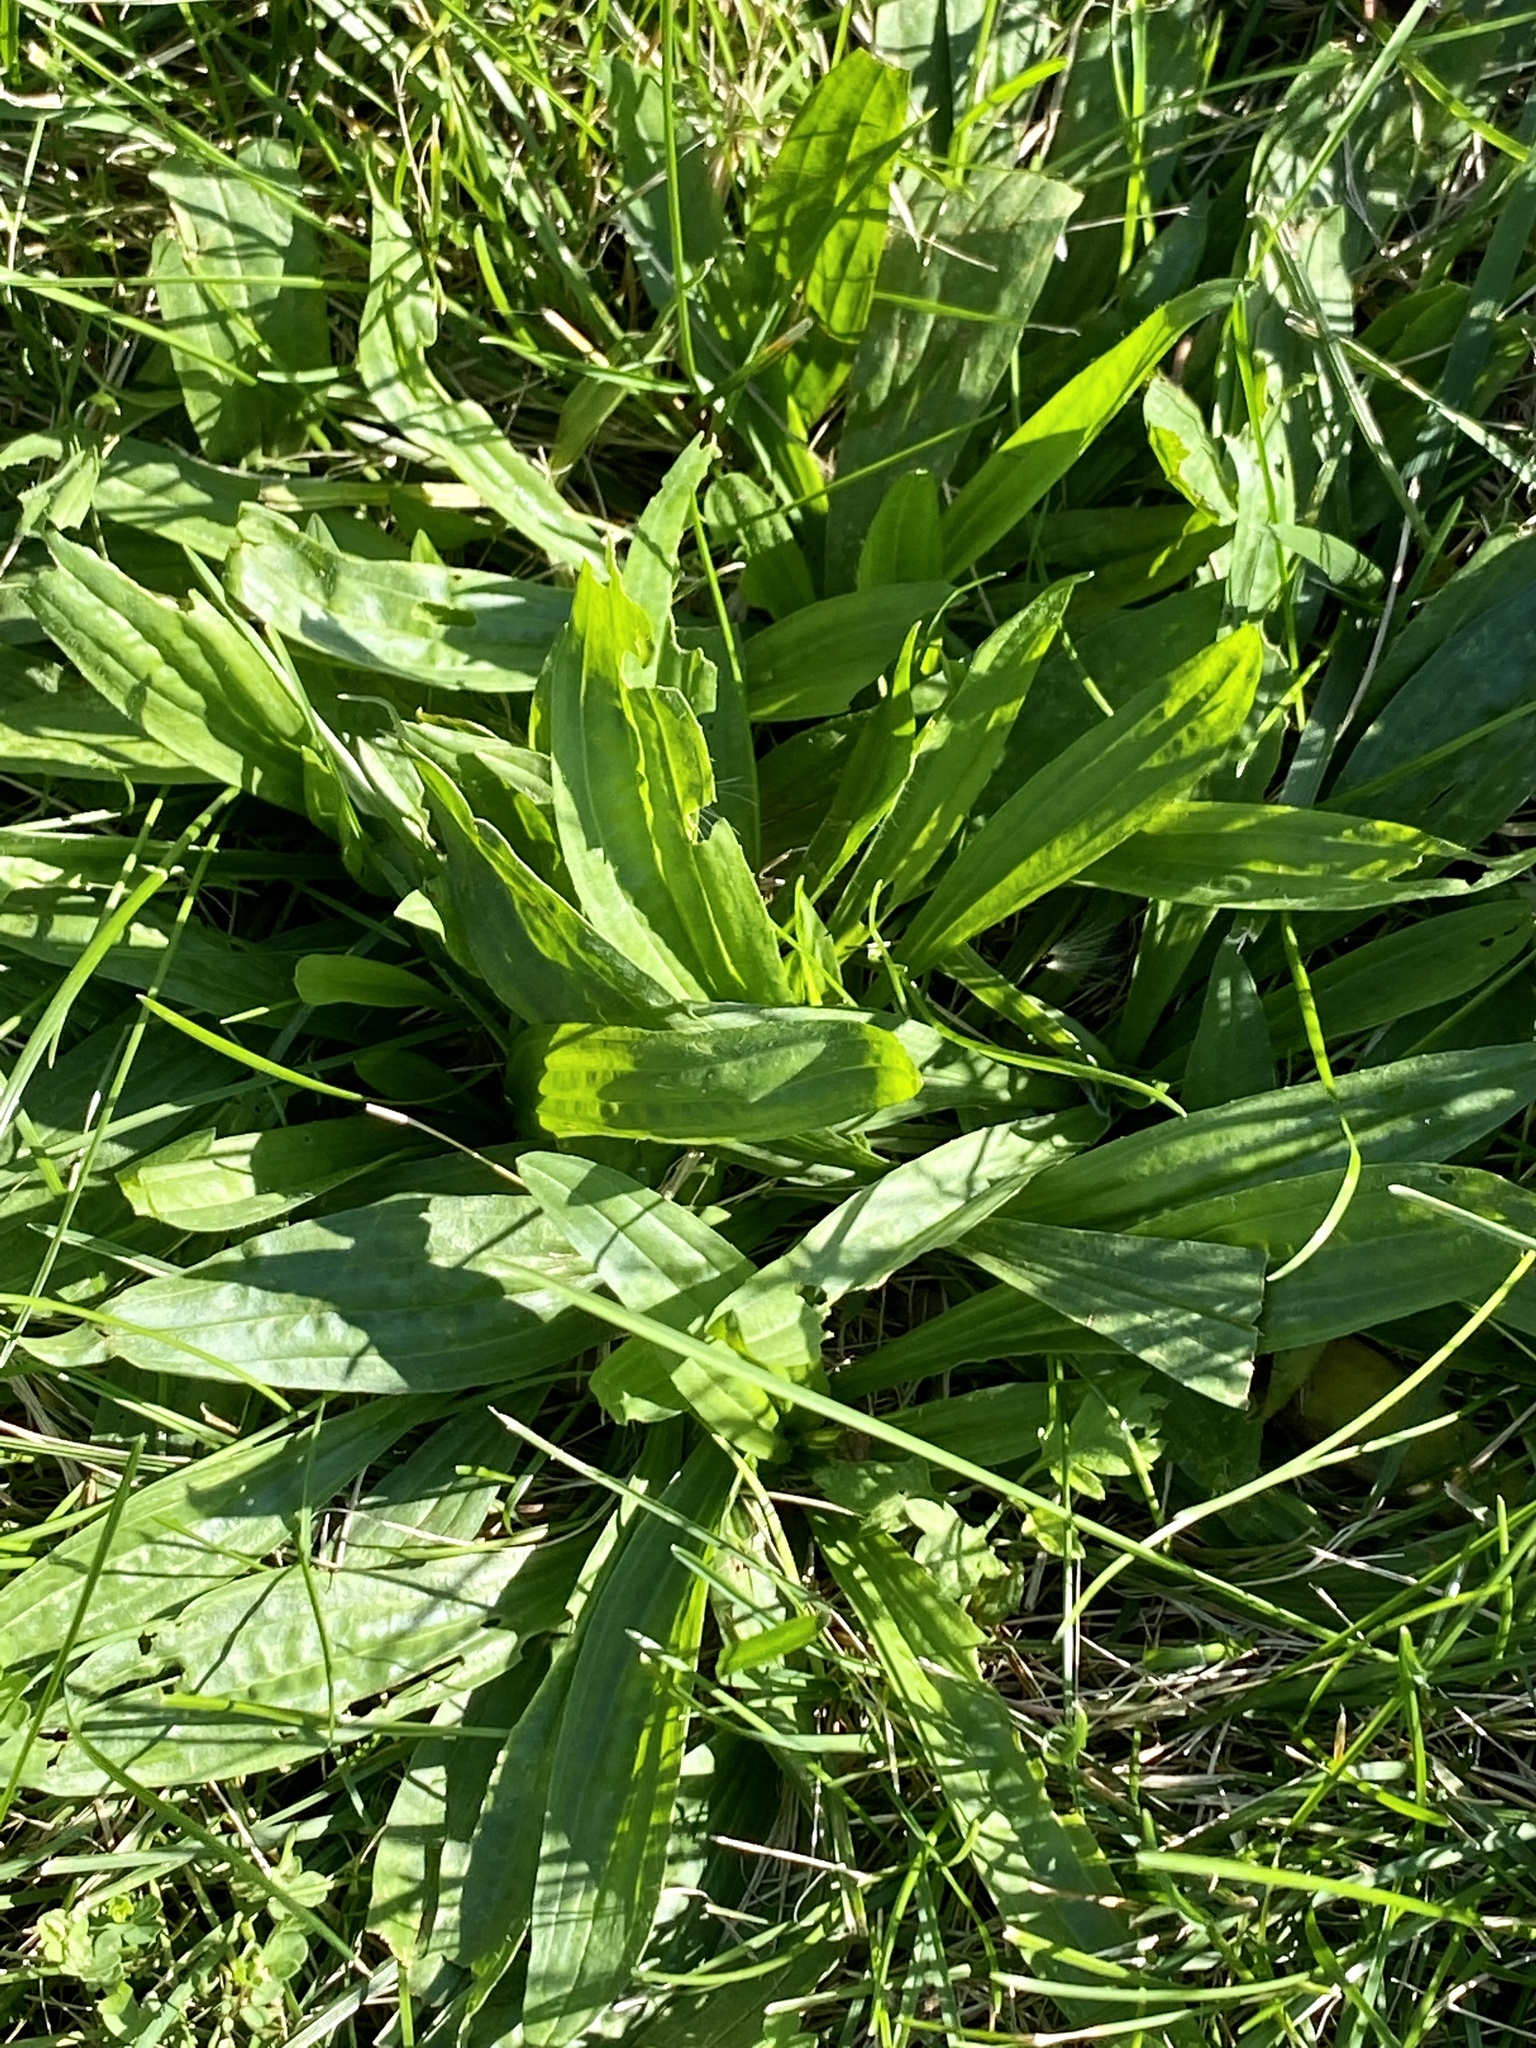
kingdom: Plantae
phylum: Tracheophyta
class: Magnoliopsida
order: Lamiales
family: Plantaginaceae
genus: Plantago
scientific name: Plantago lanceolata
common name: Ribwort plantain
